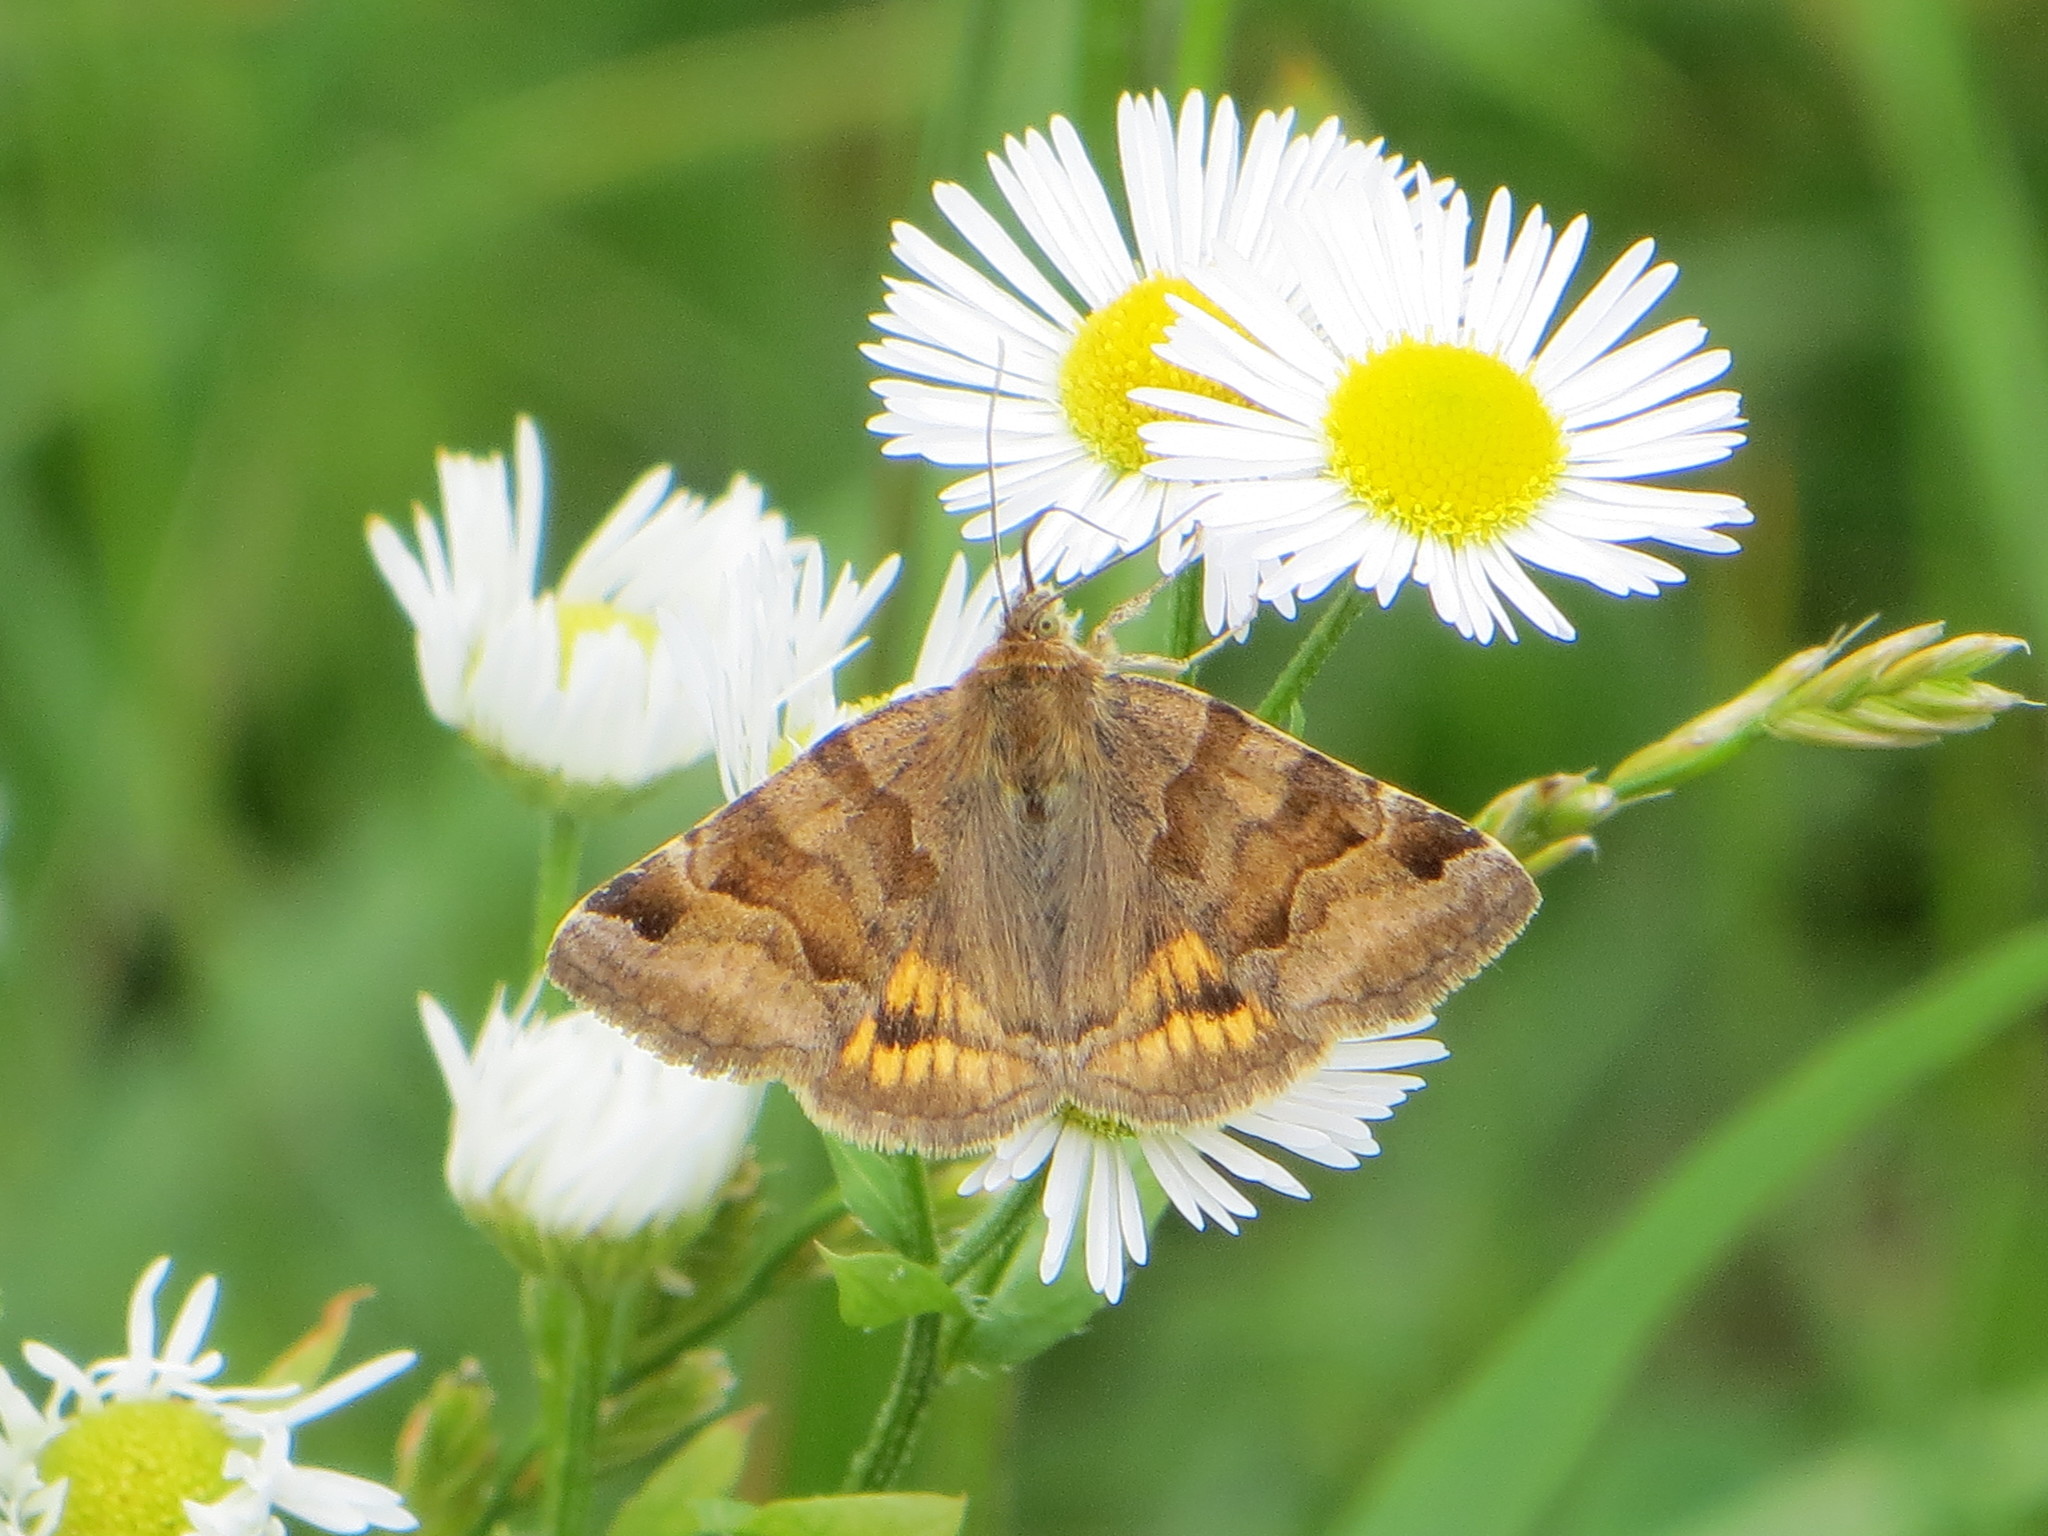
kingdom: Animalia
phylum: Arthropoda
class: Insecta
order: Lepidoptera
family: Erebidae
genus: Euclidia
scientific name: Euclidia glyphica
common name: Burnet companion
